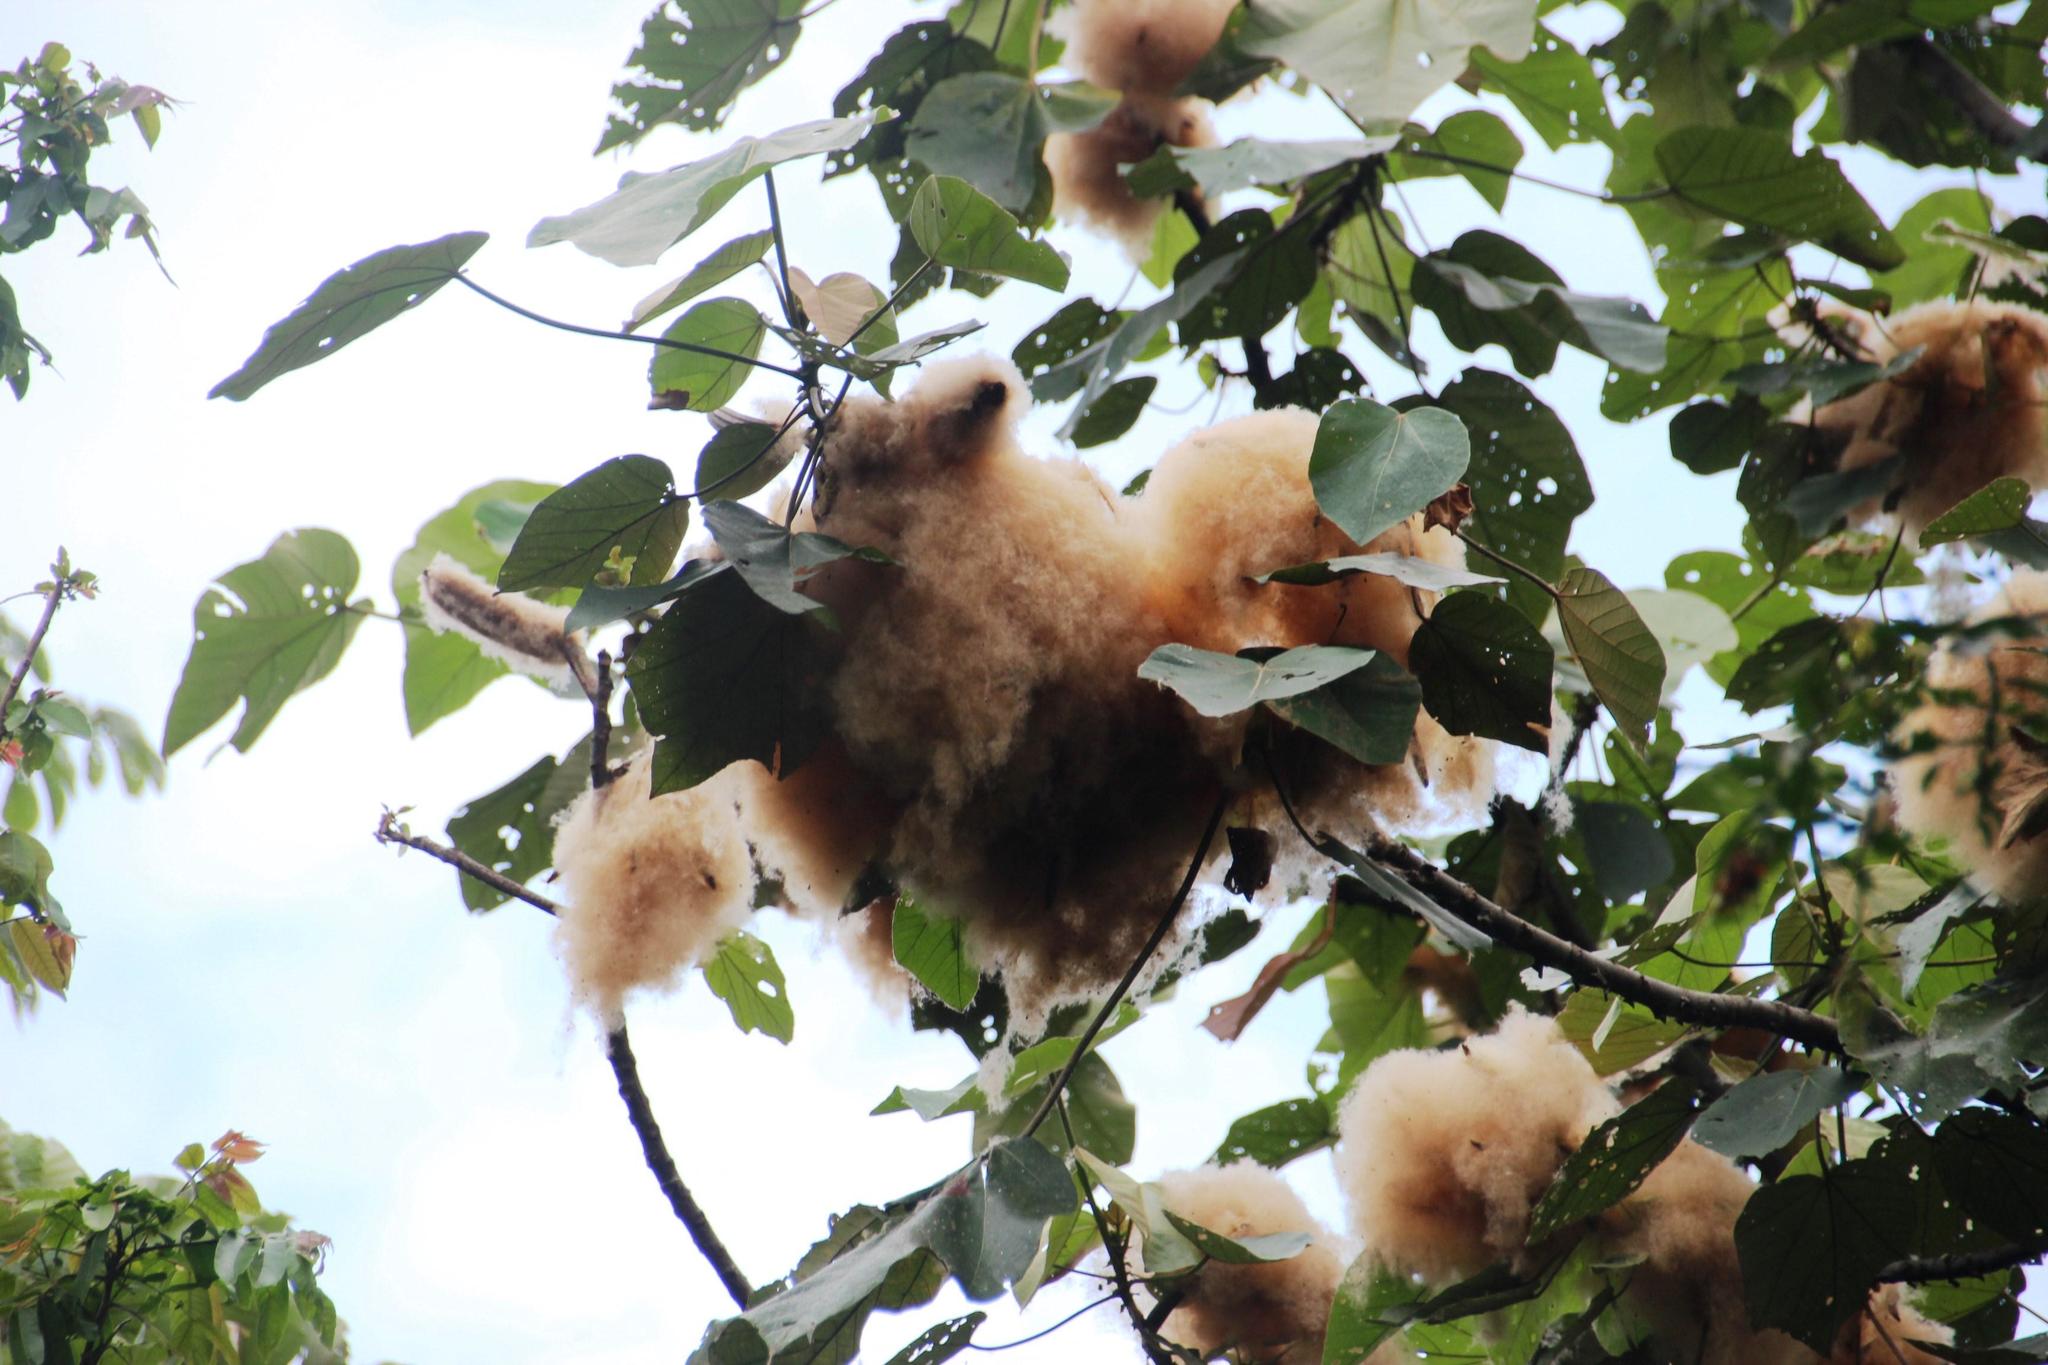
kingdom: Plantae
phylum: Tracheophyta
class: Magnoliopsida
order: Malvales
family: Malvaceae
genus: Ochroma
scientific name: Ochroma pyramidale
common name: Balsa
